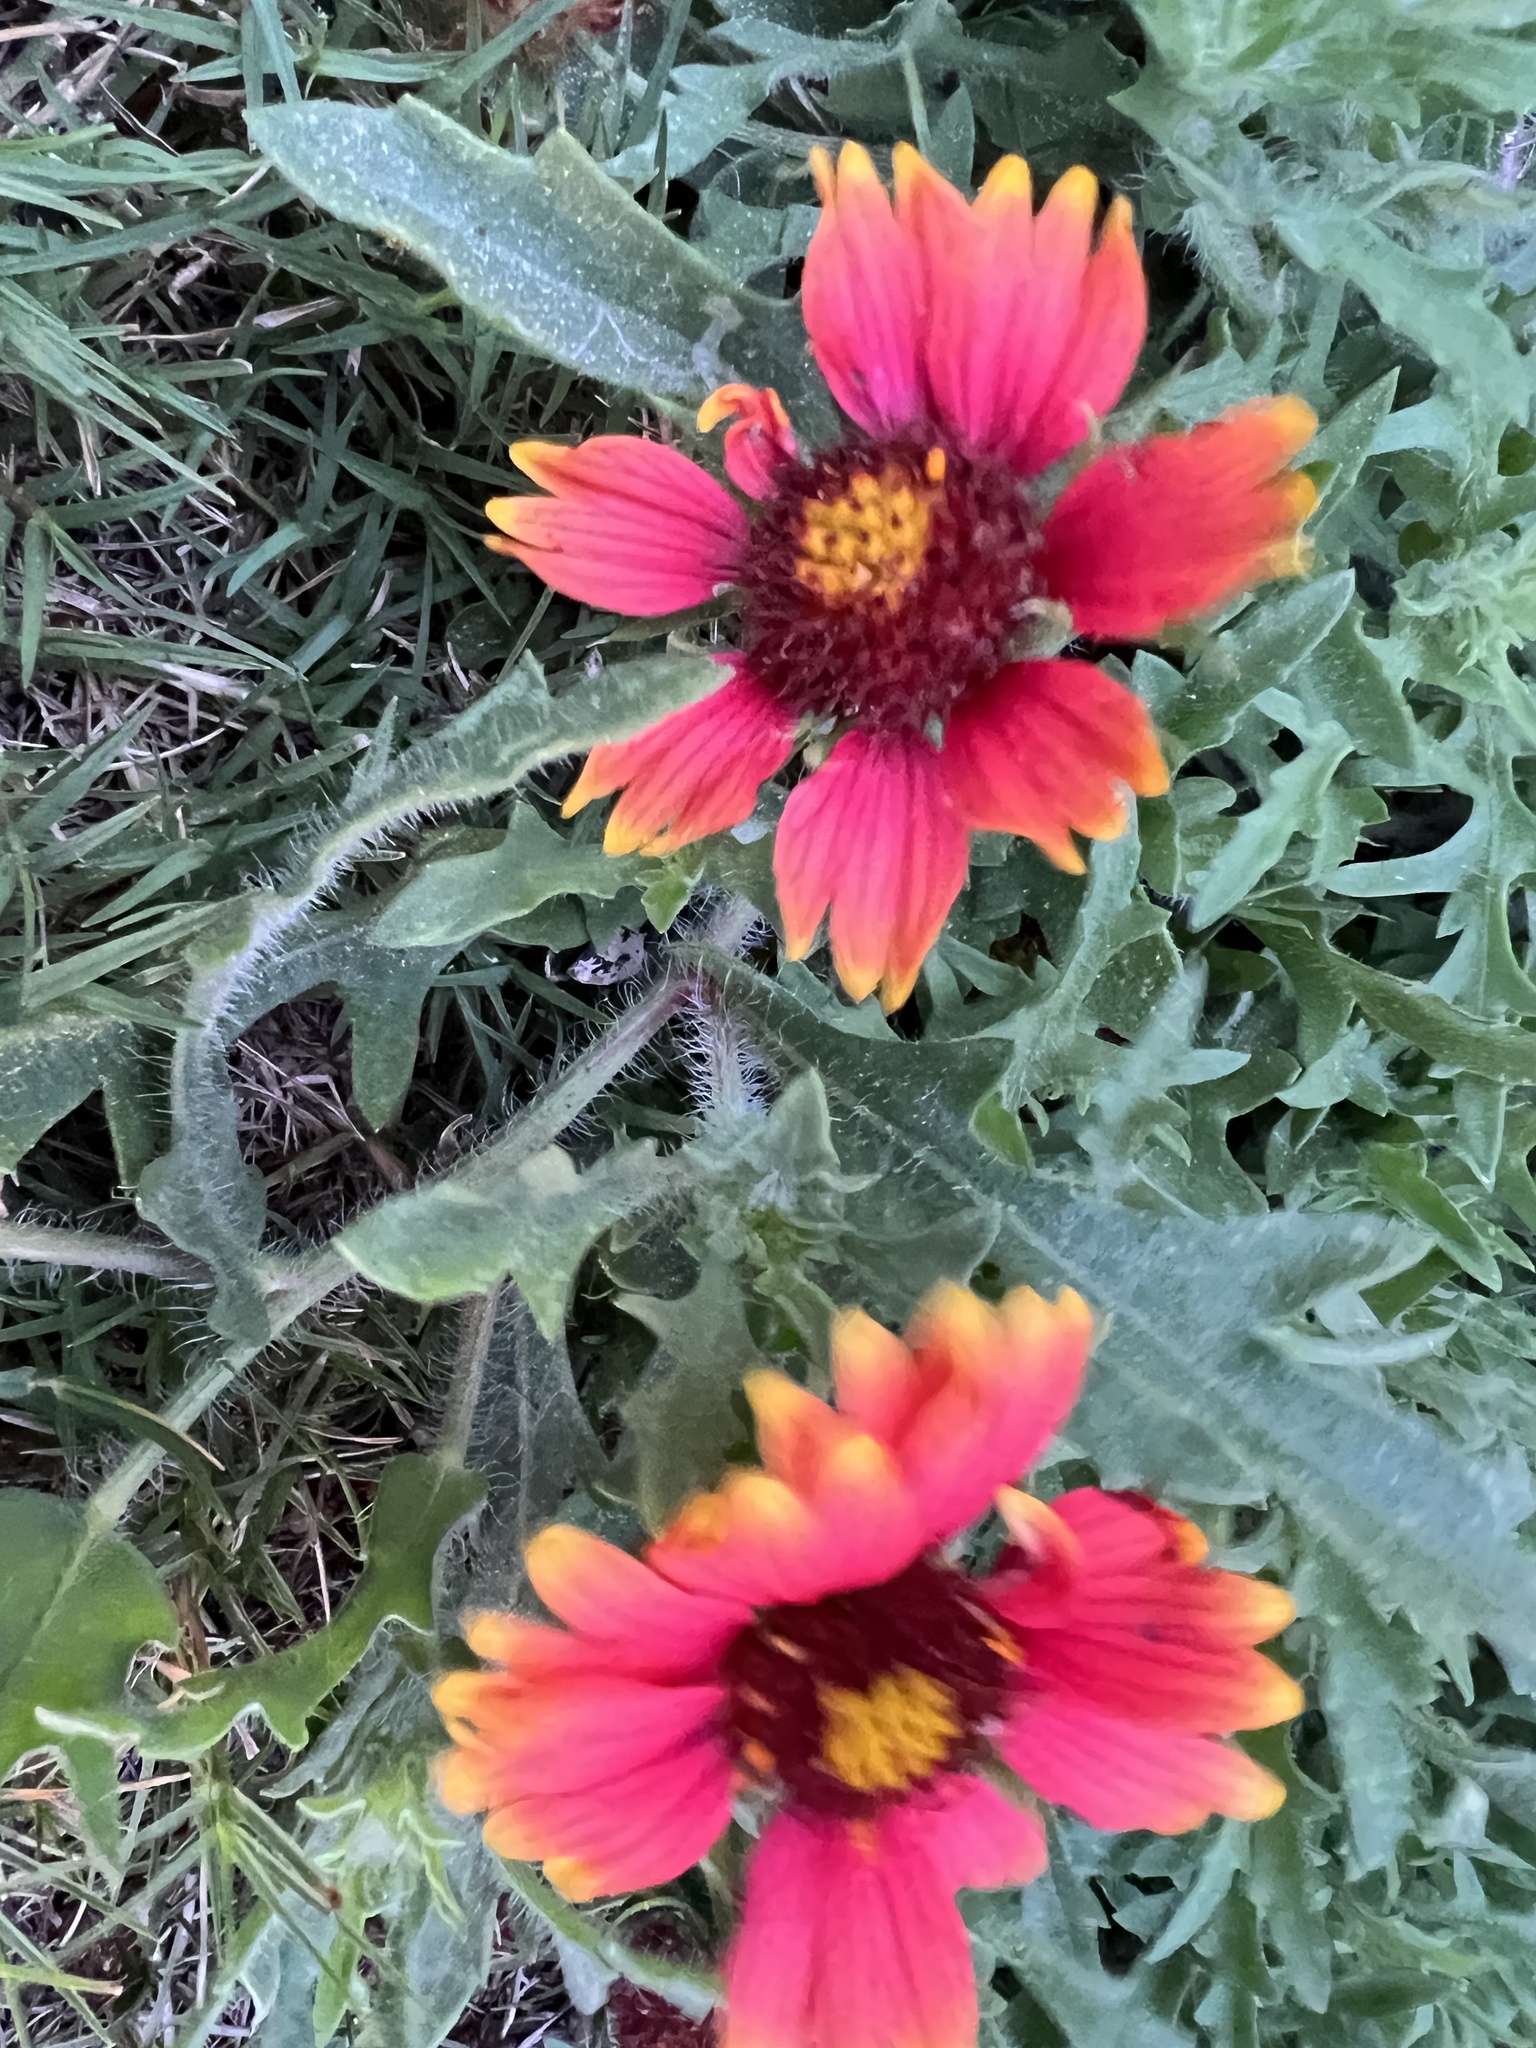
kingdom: Plantae
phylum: Tracheophyta
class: Magnoliopsida
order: Asterales
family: Asteraceae
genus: Gaillardia
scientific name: Gaillardia pulchella
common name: Firewheel
